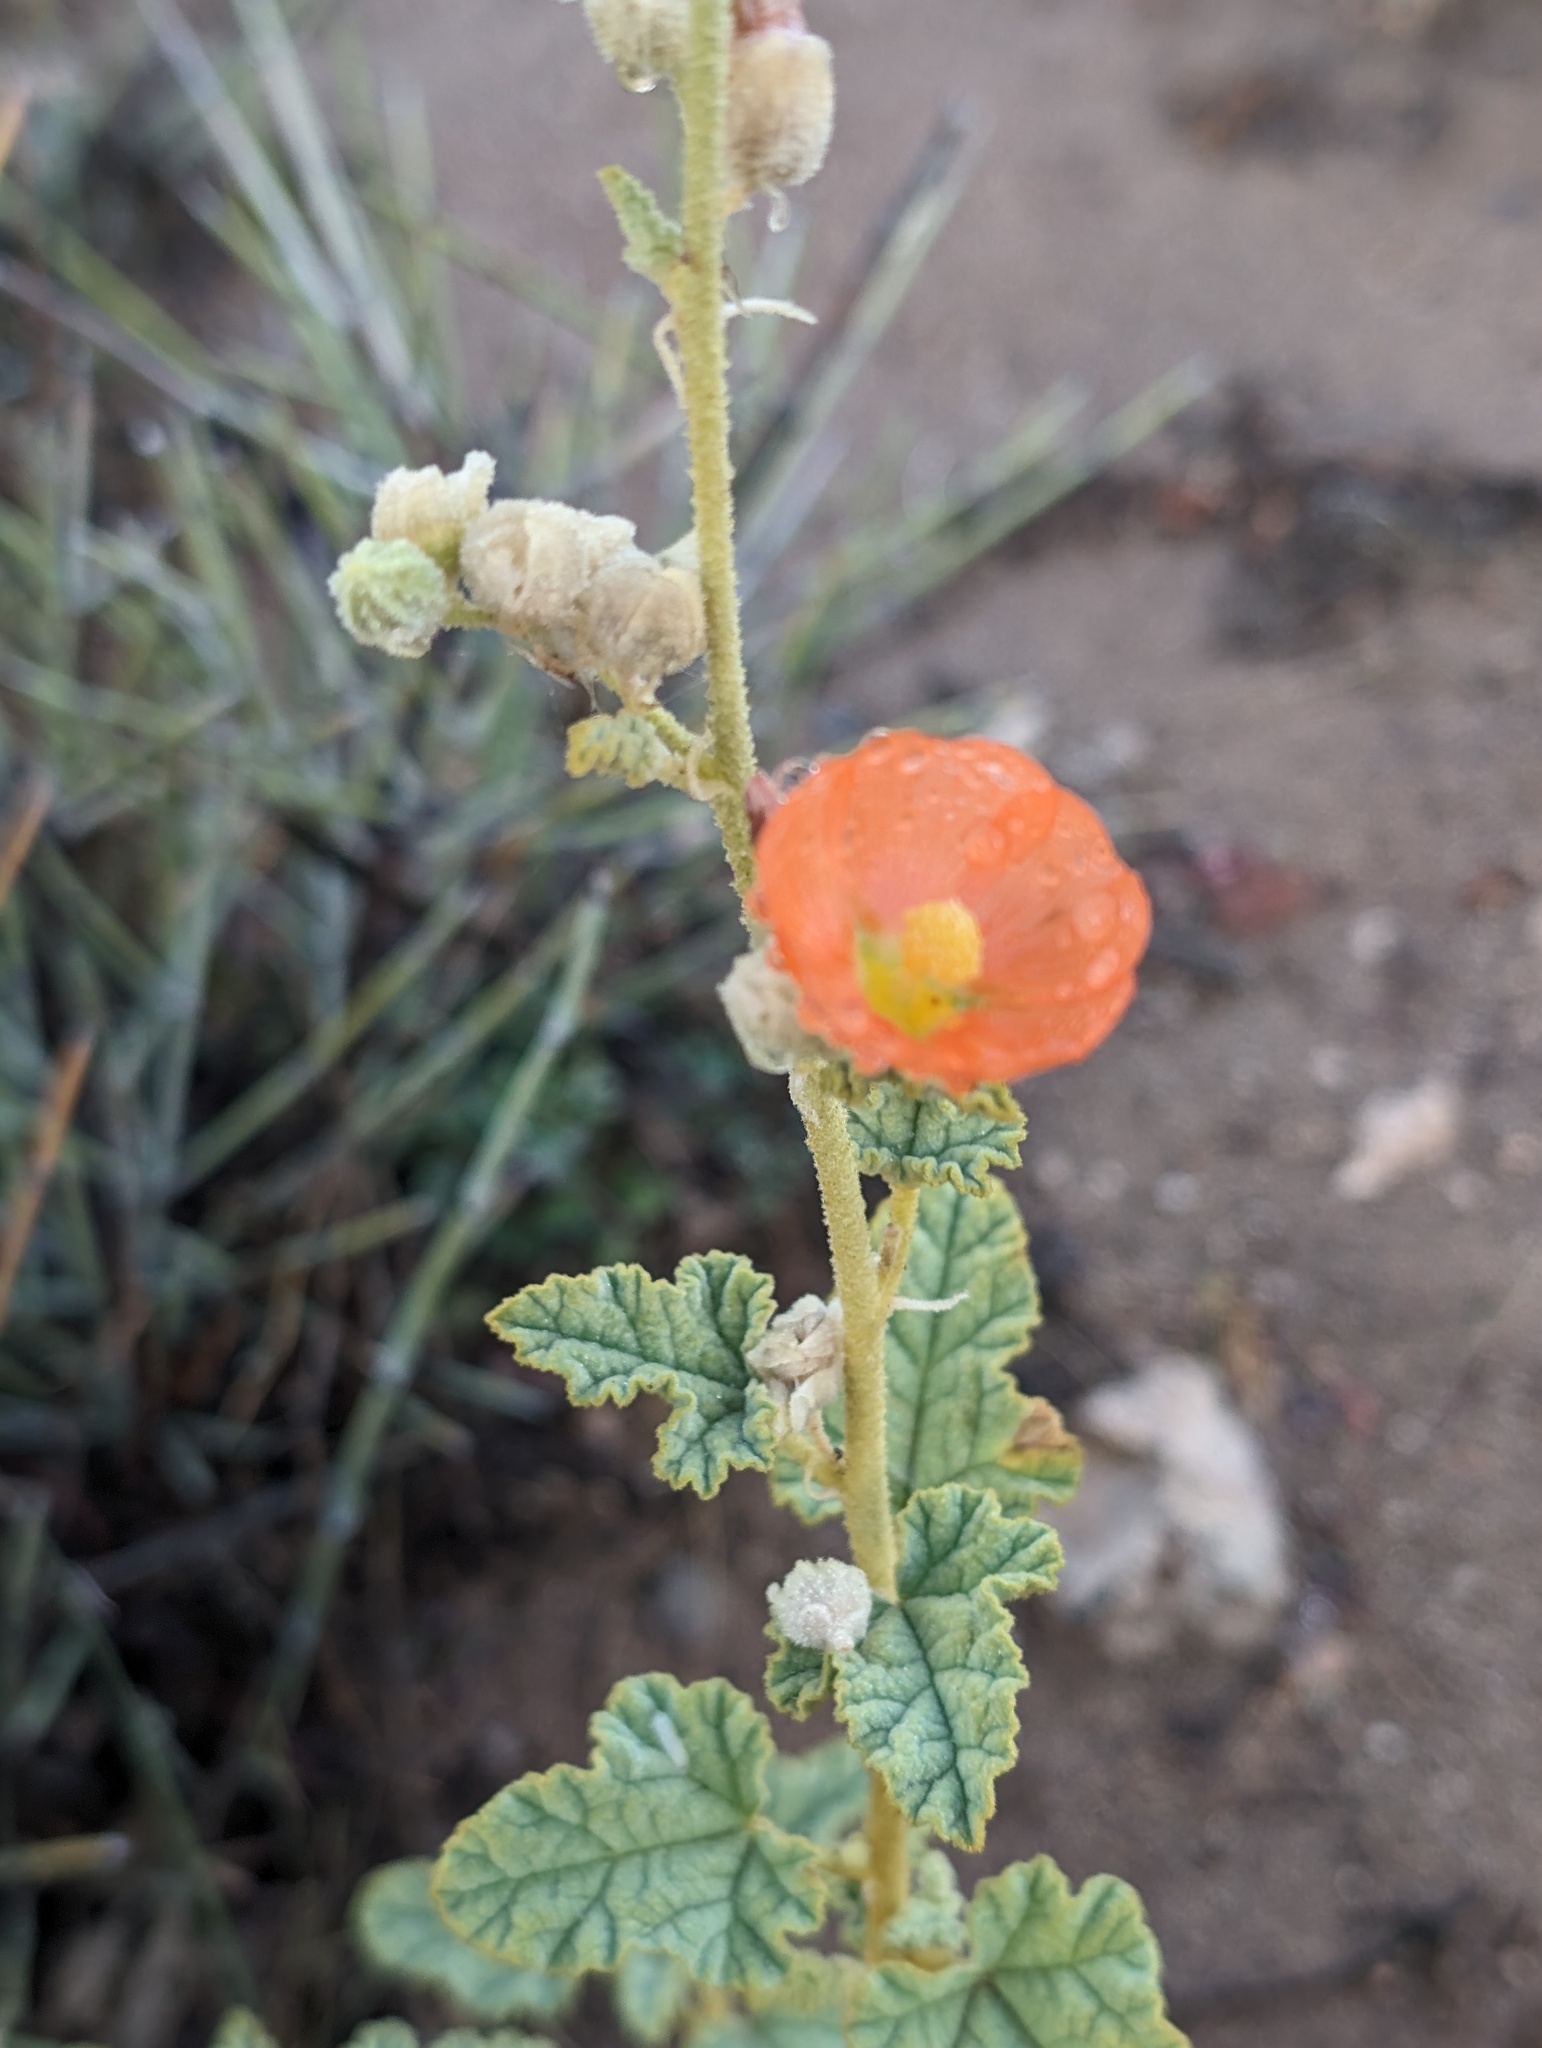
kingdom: Plantae
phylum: Tracheophyta
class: Magnoliopsida
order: Malvales
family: Malvaceae
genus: Sphaeralcea
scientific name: Sphaeralcea ambigua
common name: Apricot globe-mallow
